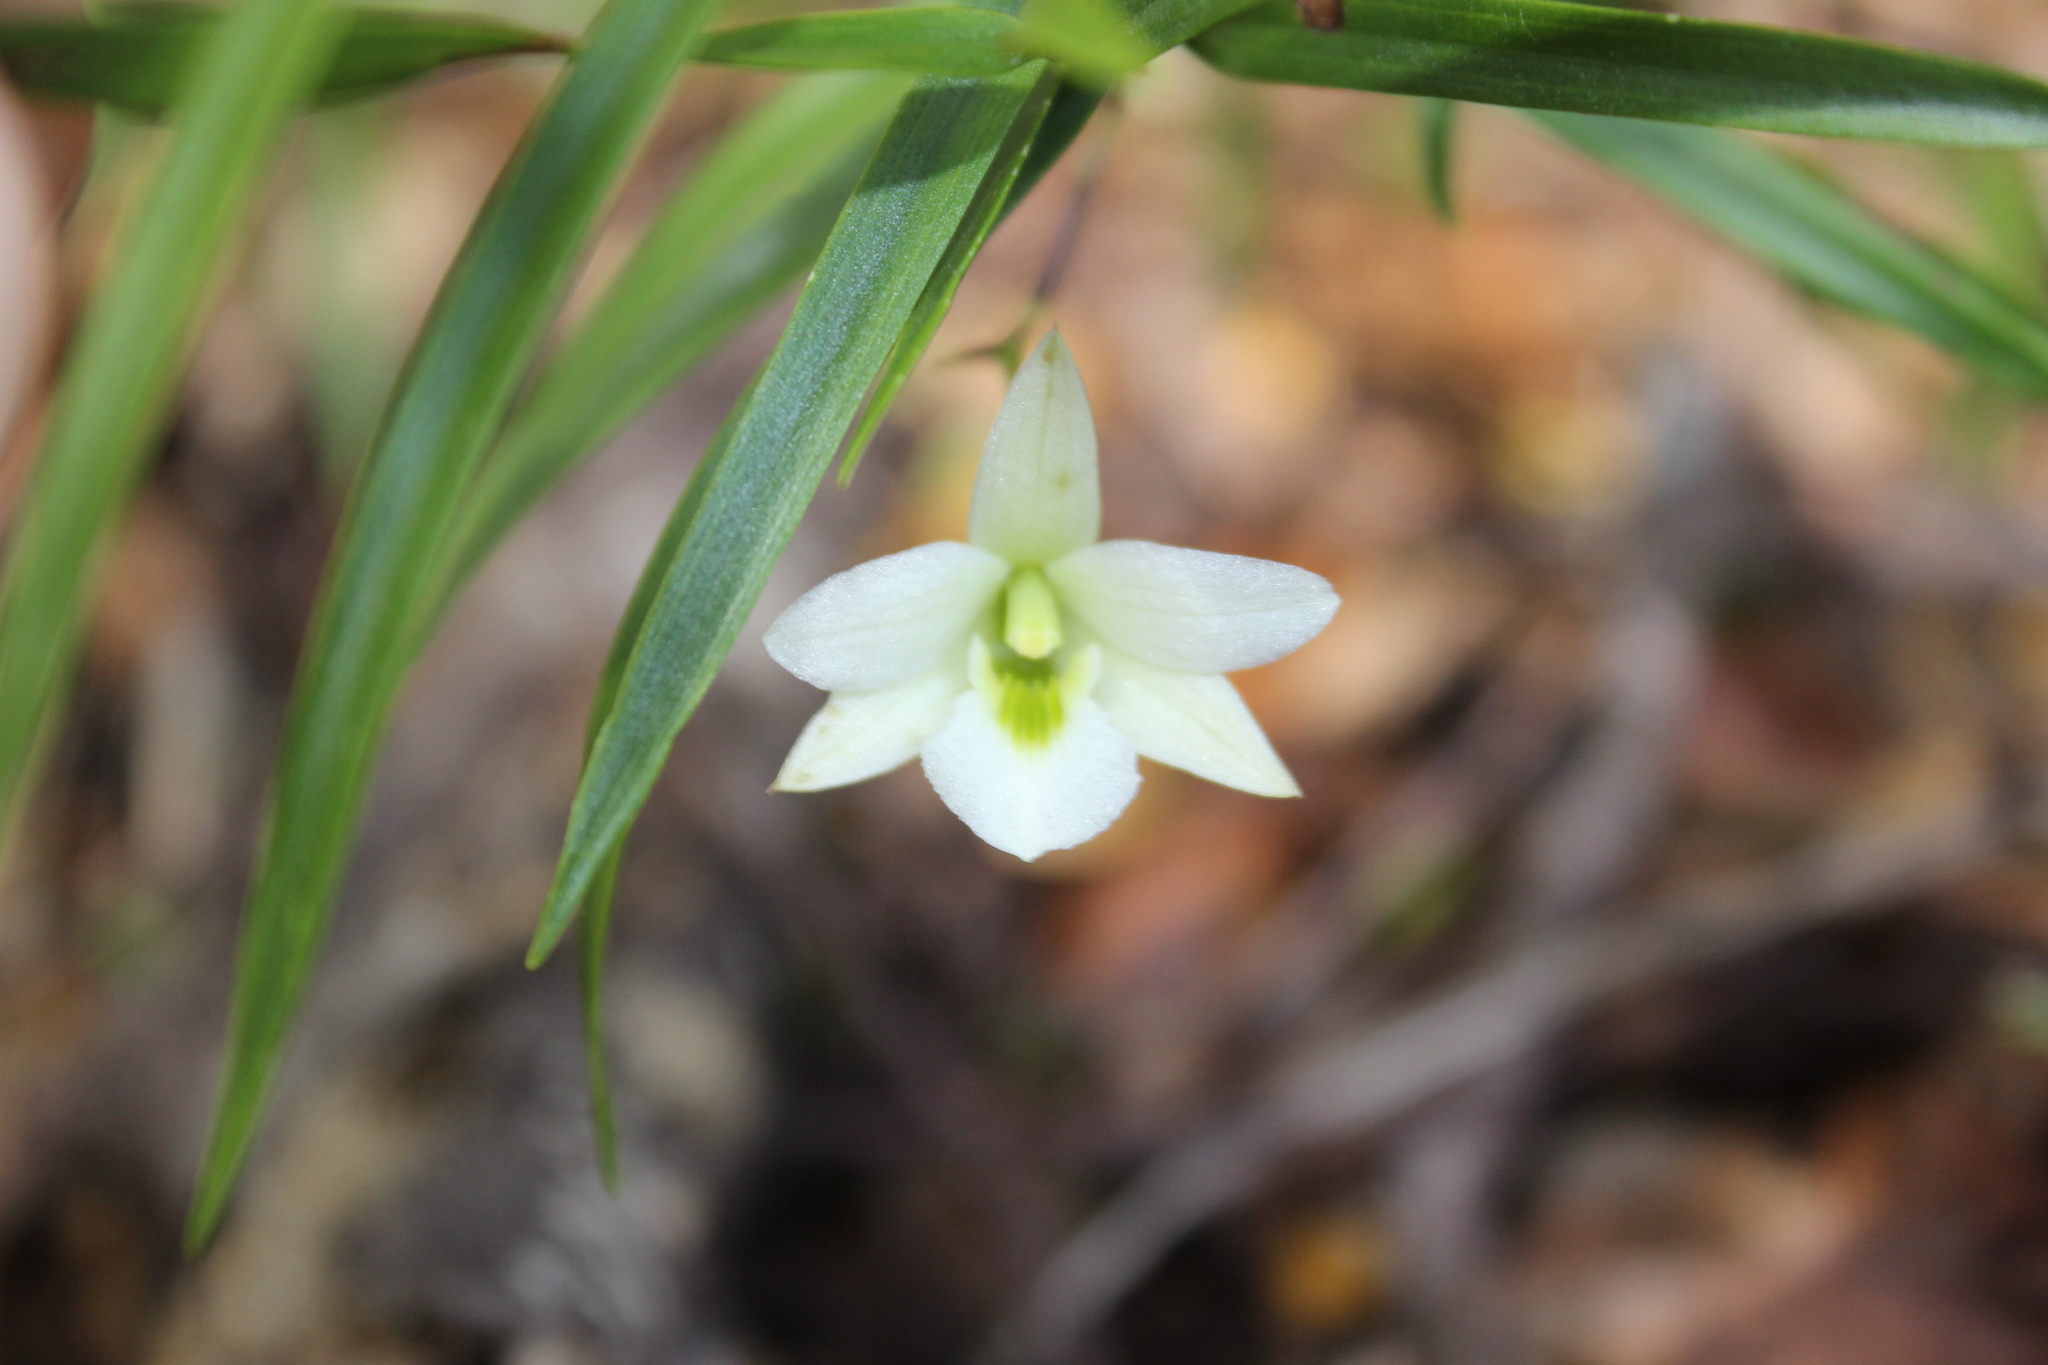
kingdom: Plantae
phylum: Tracheophyta
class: Liliopsida
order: Asparagales
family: Orchidaceae
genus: Dendrobium
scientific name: Dendrobium cunninghamii
